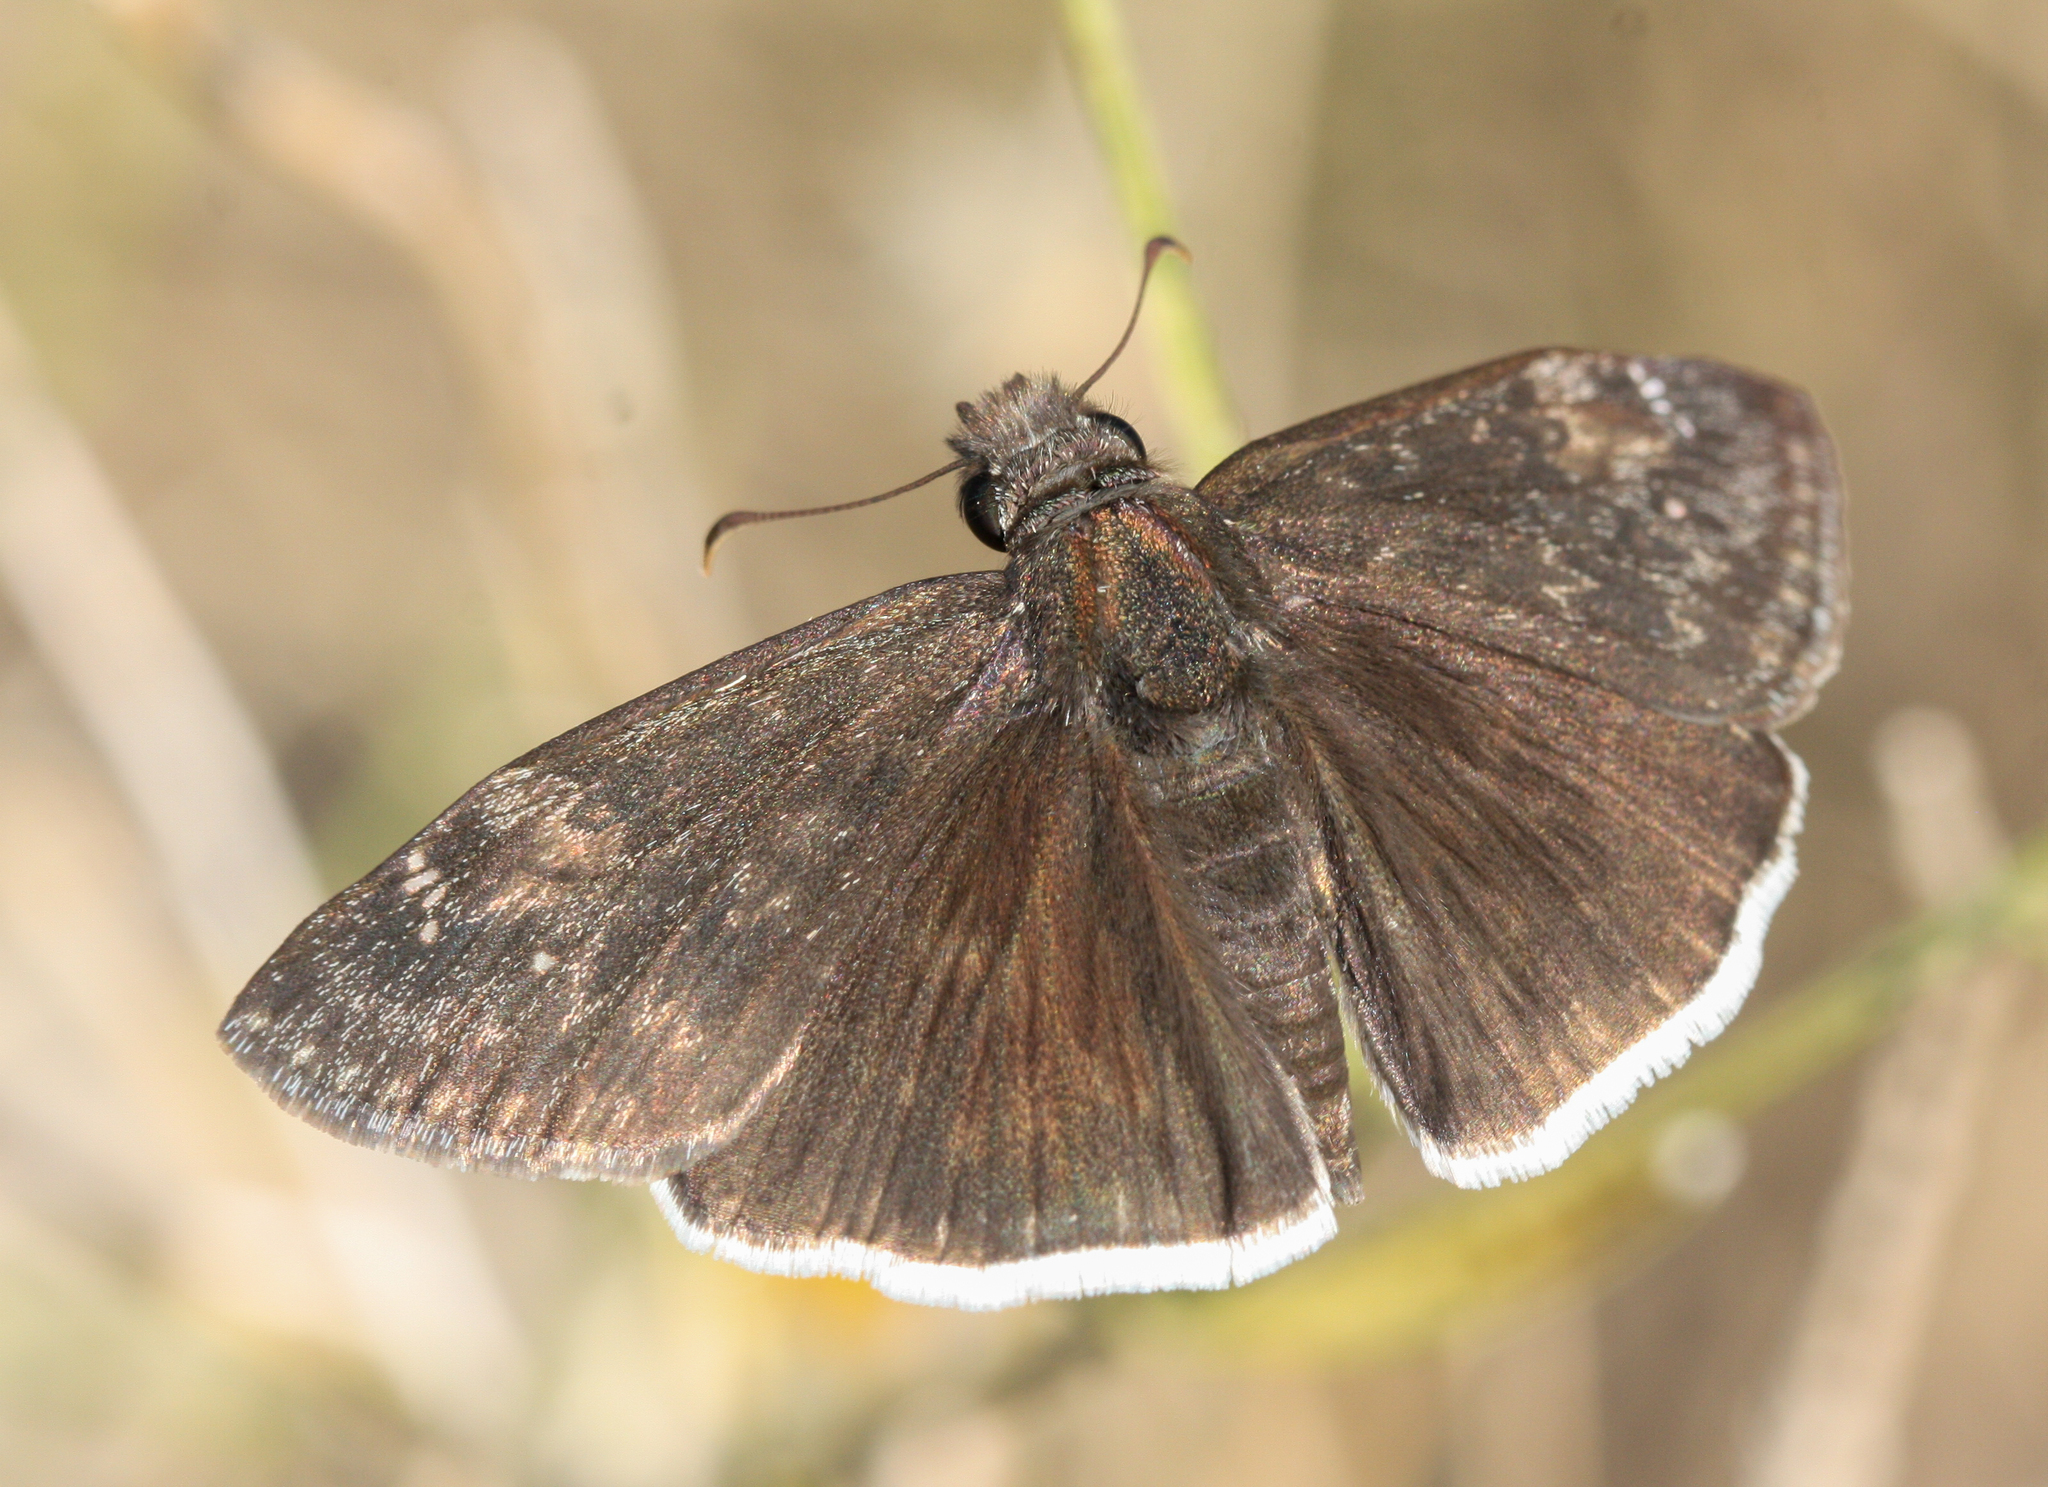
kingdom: Animalia
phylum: Arthropoda
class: Insecta
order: Lepidoptera
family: Hesperiidae
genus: Erynnis
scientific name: Erynnis funeralis
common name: Funereal duskywing
